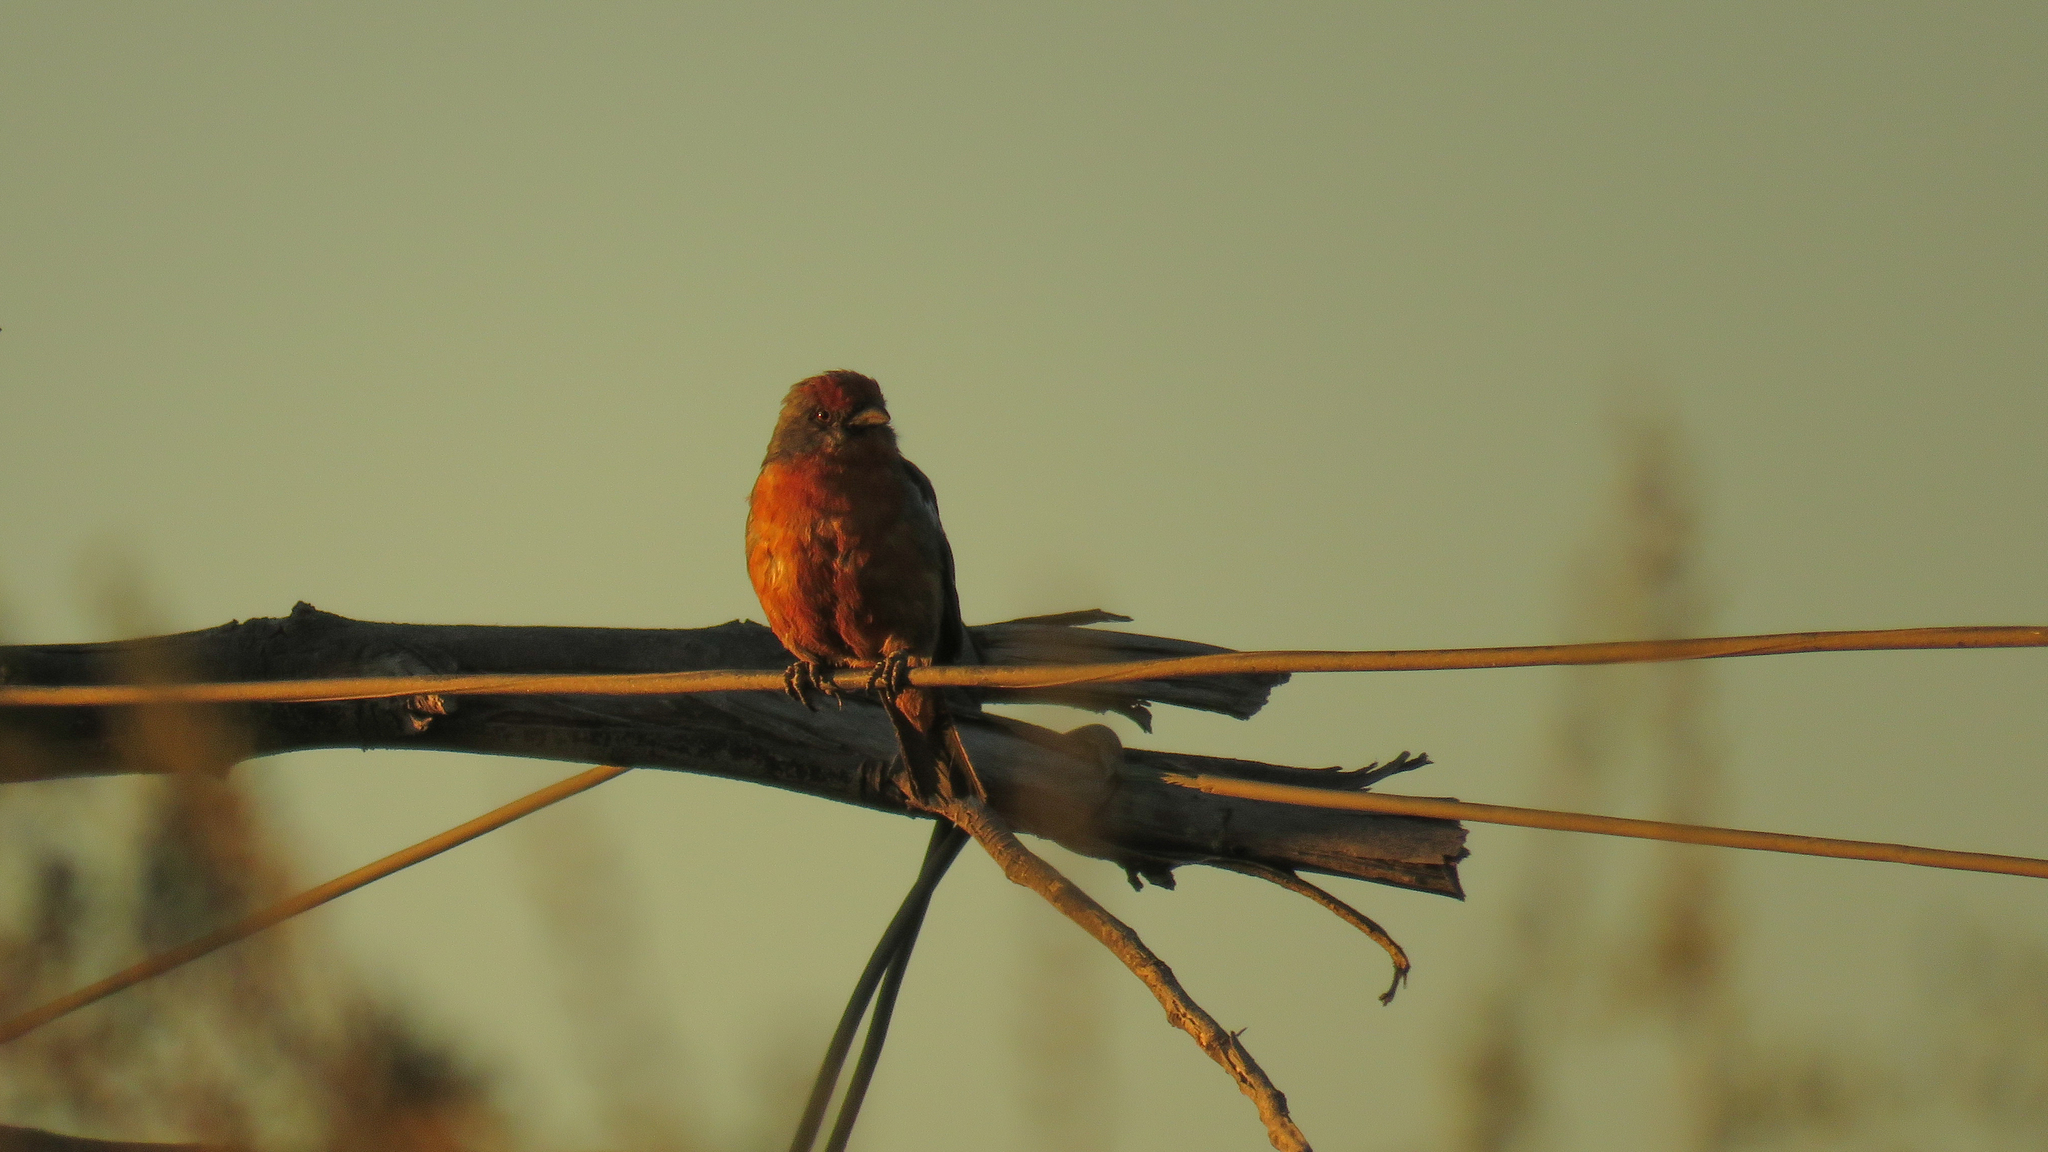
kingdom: Animalia
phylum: Chordata
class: Aves
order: Passeriformes
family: Cotingidae
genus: Phytotoma
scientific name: Phytotoma rutila
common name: White-tipped plantcutter
